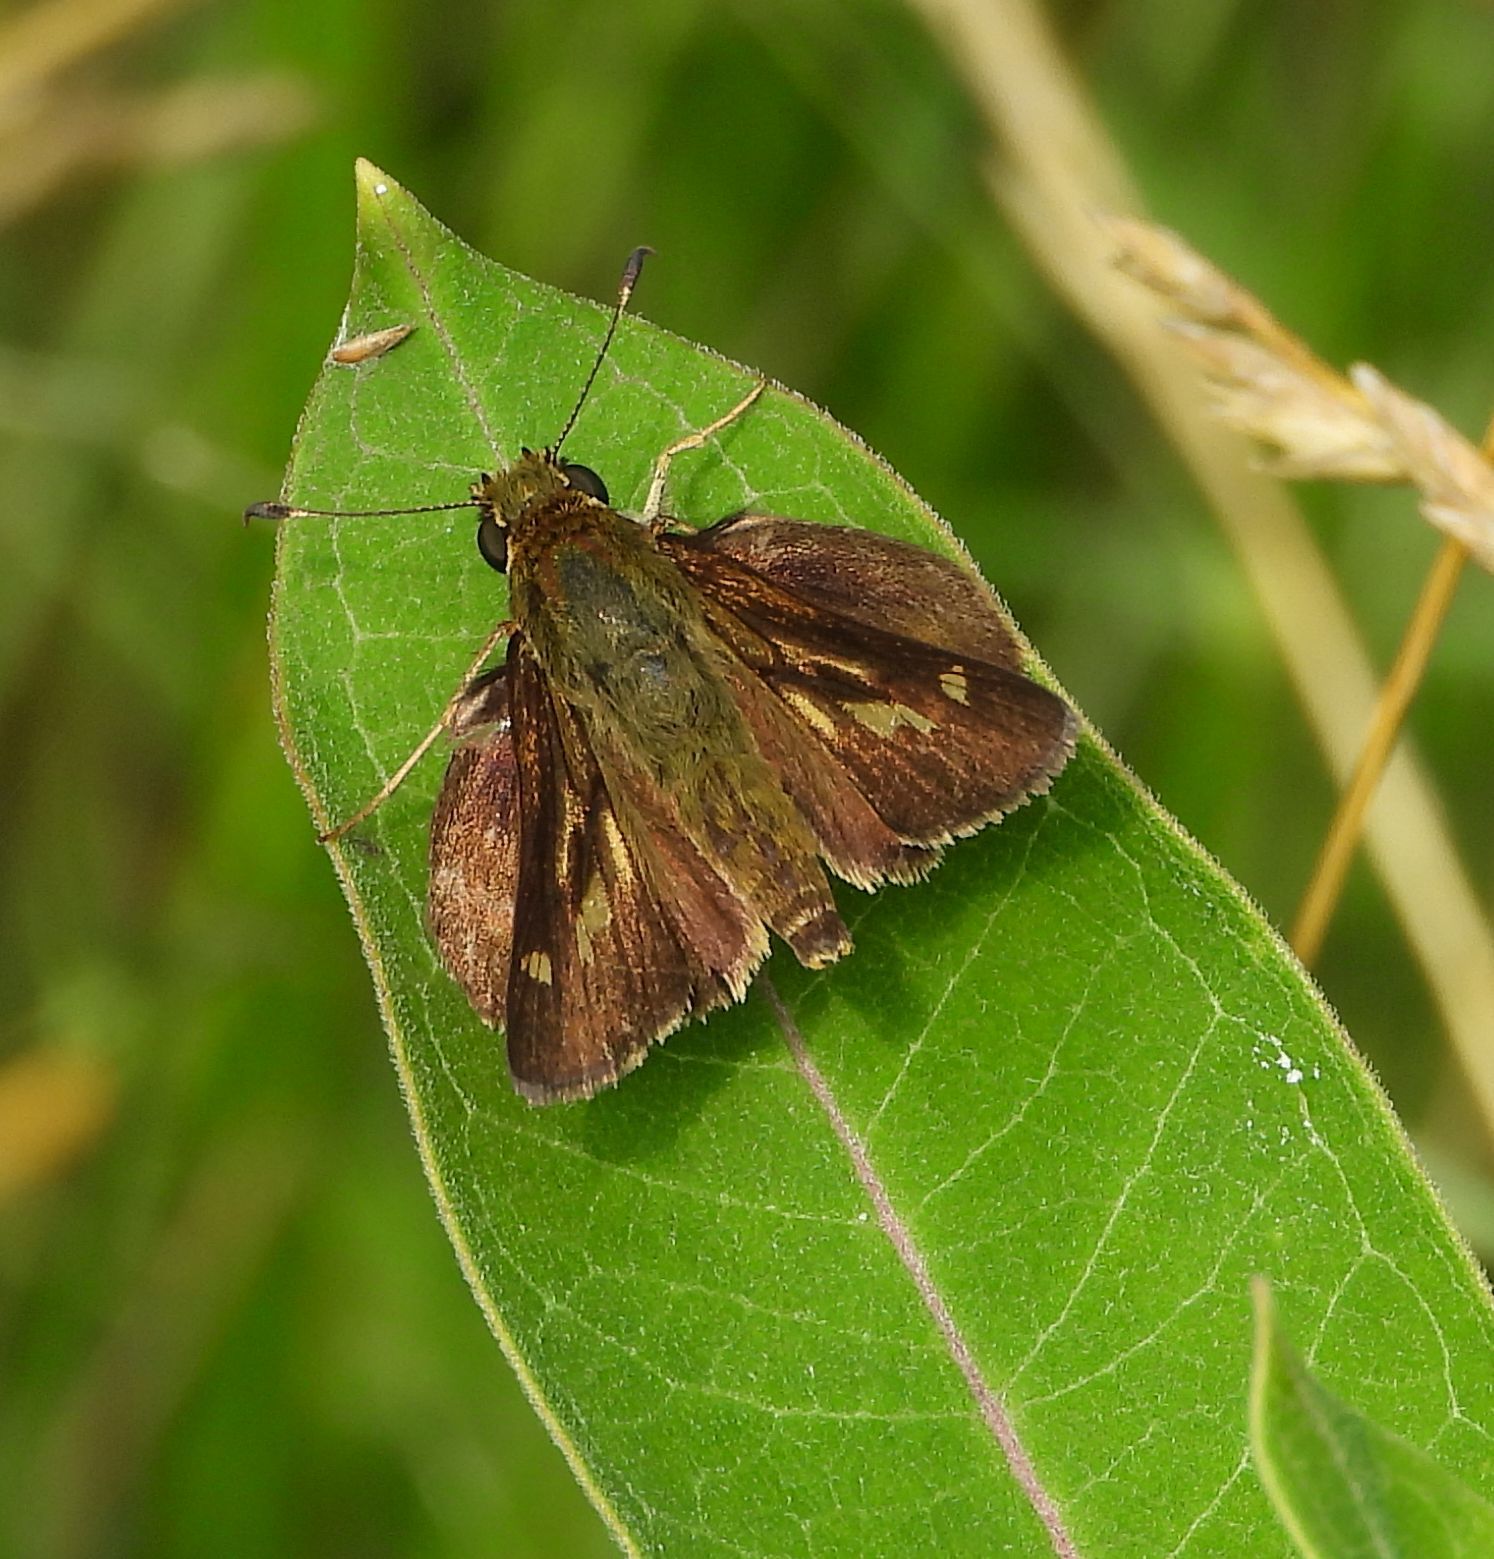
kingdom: Animalia
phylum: Arthropoda
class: Insecta
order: Lepidoptera
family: Hesperiidae
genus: Vernia
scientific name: Vernia verna
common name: Little glassywing
